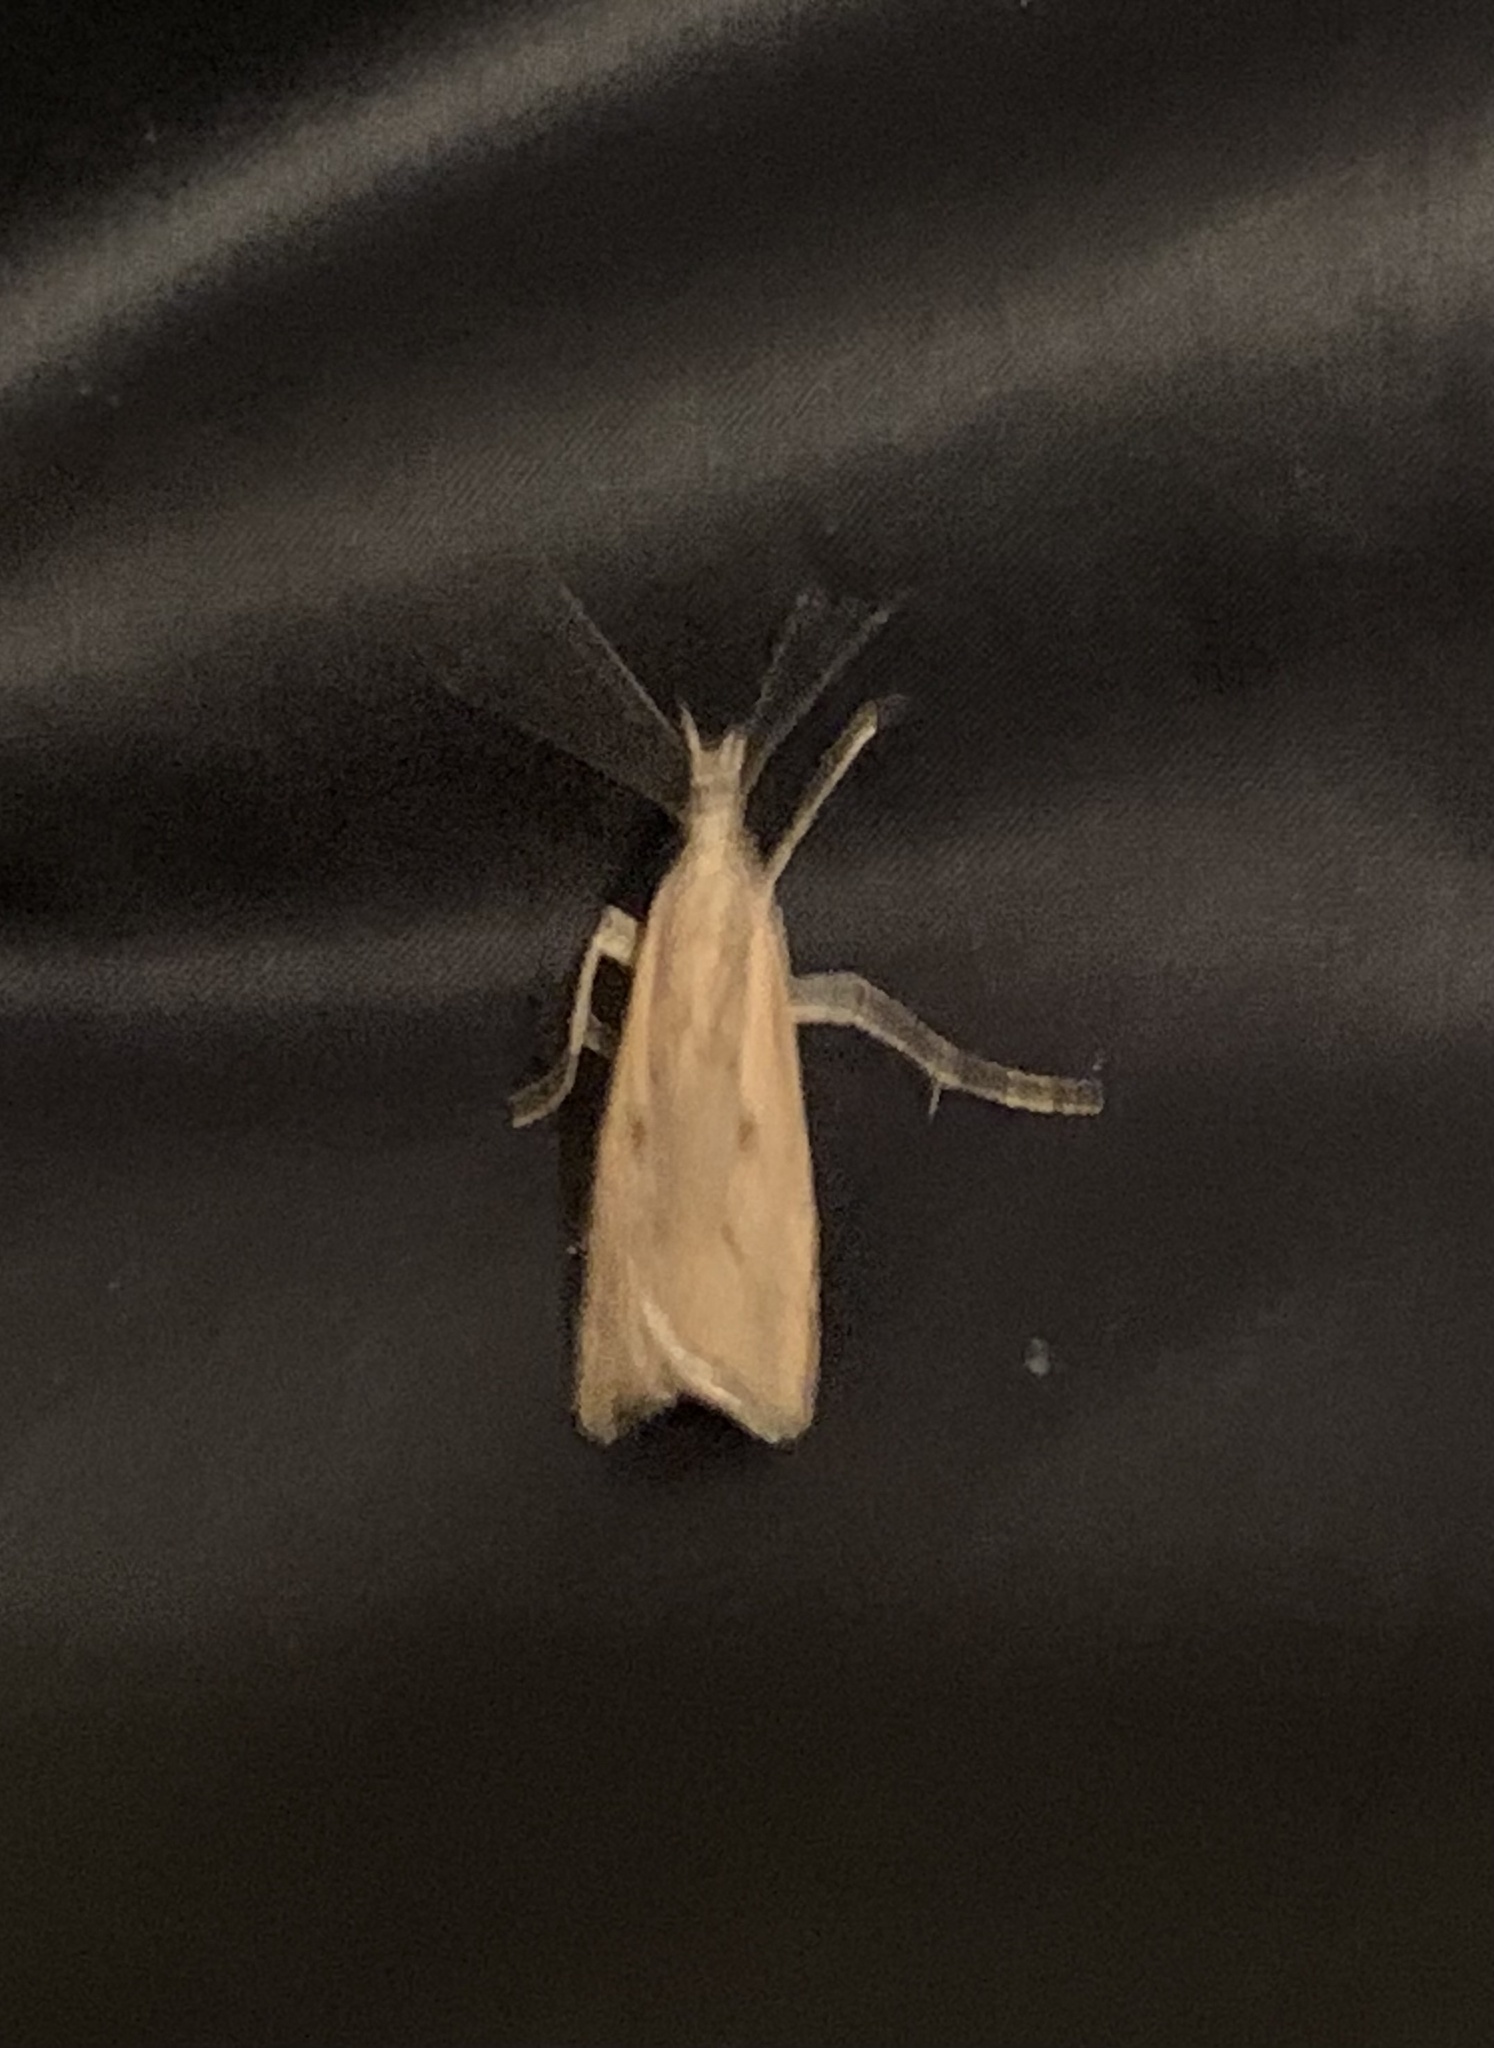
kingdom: Animalia
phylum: Arthropoda
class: Insecta
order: Lepidoptera
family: Crambidae
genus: Agriphila
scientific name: Agriphila geniculea
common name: Elbow-stripe grass-veneer
